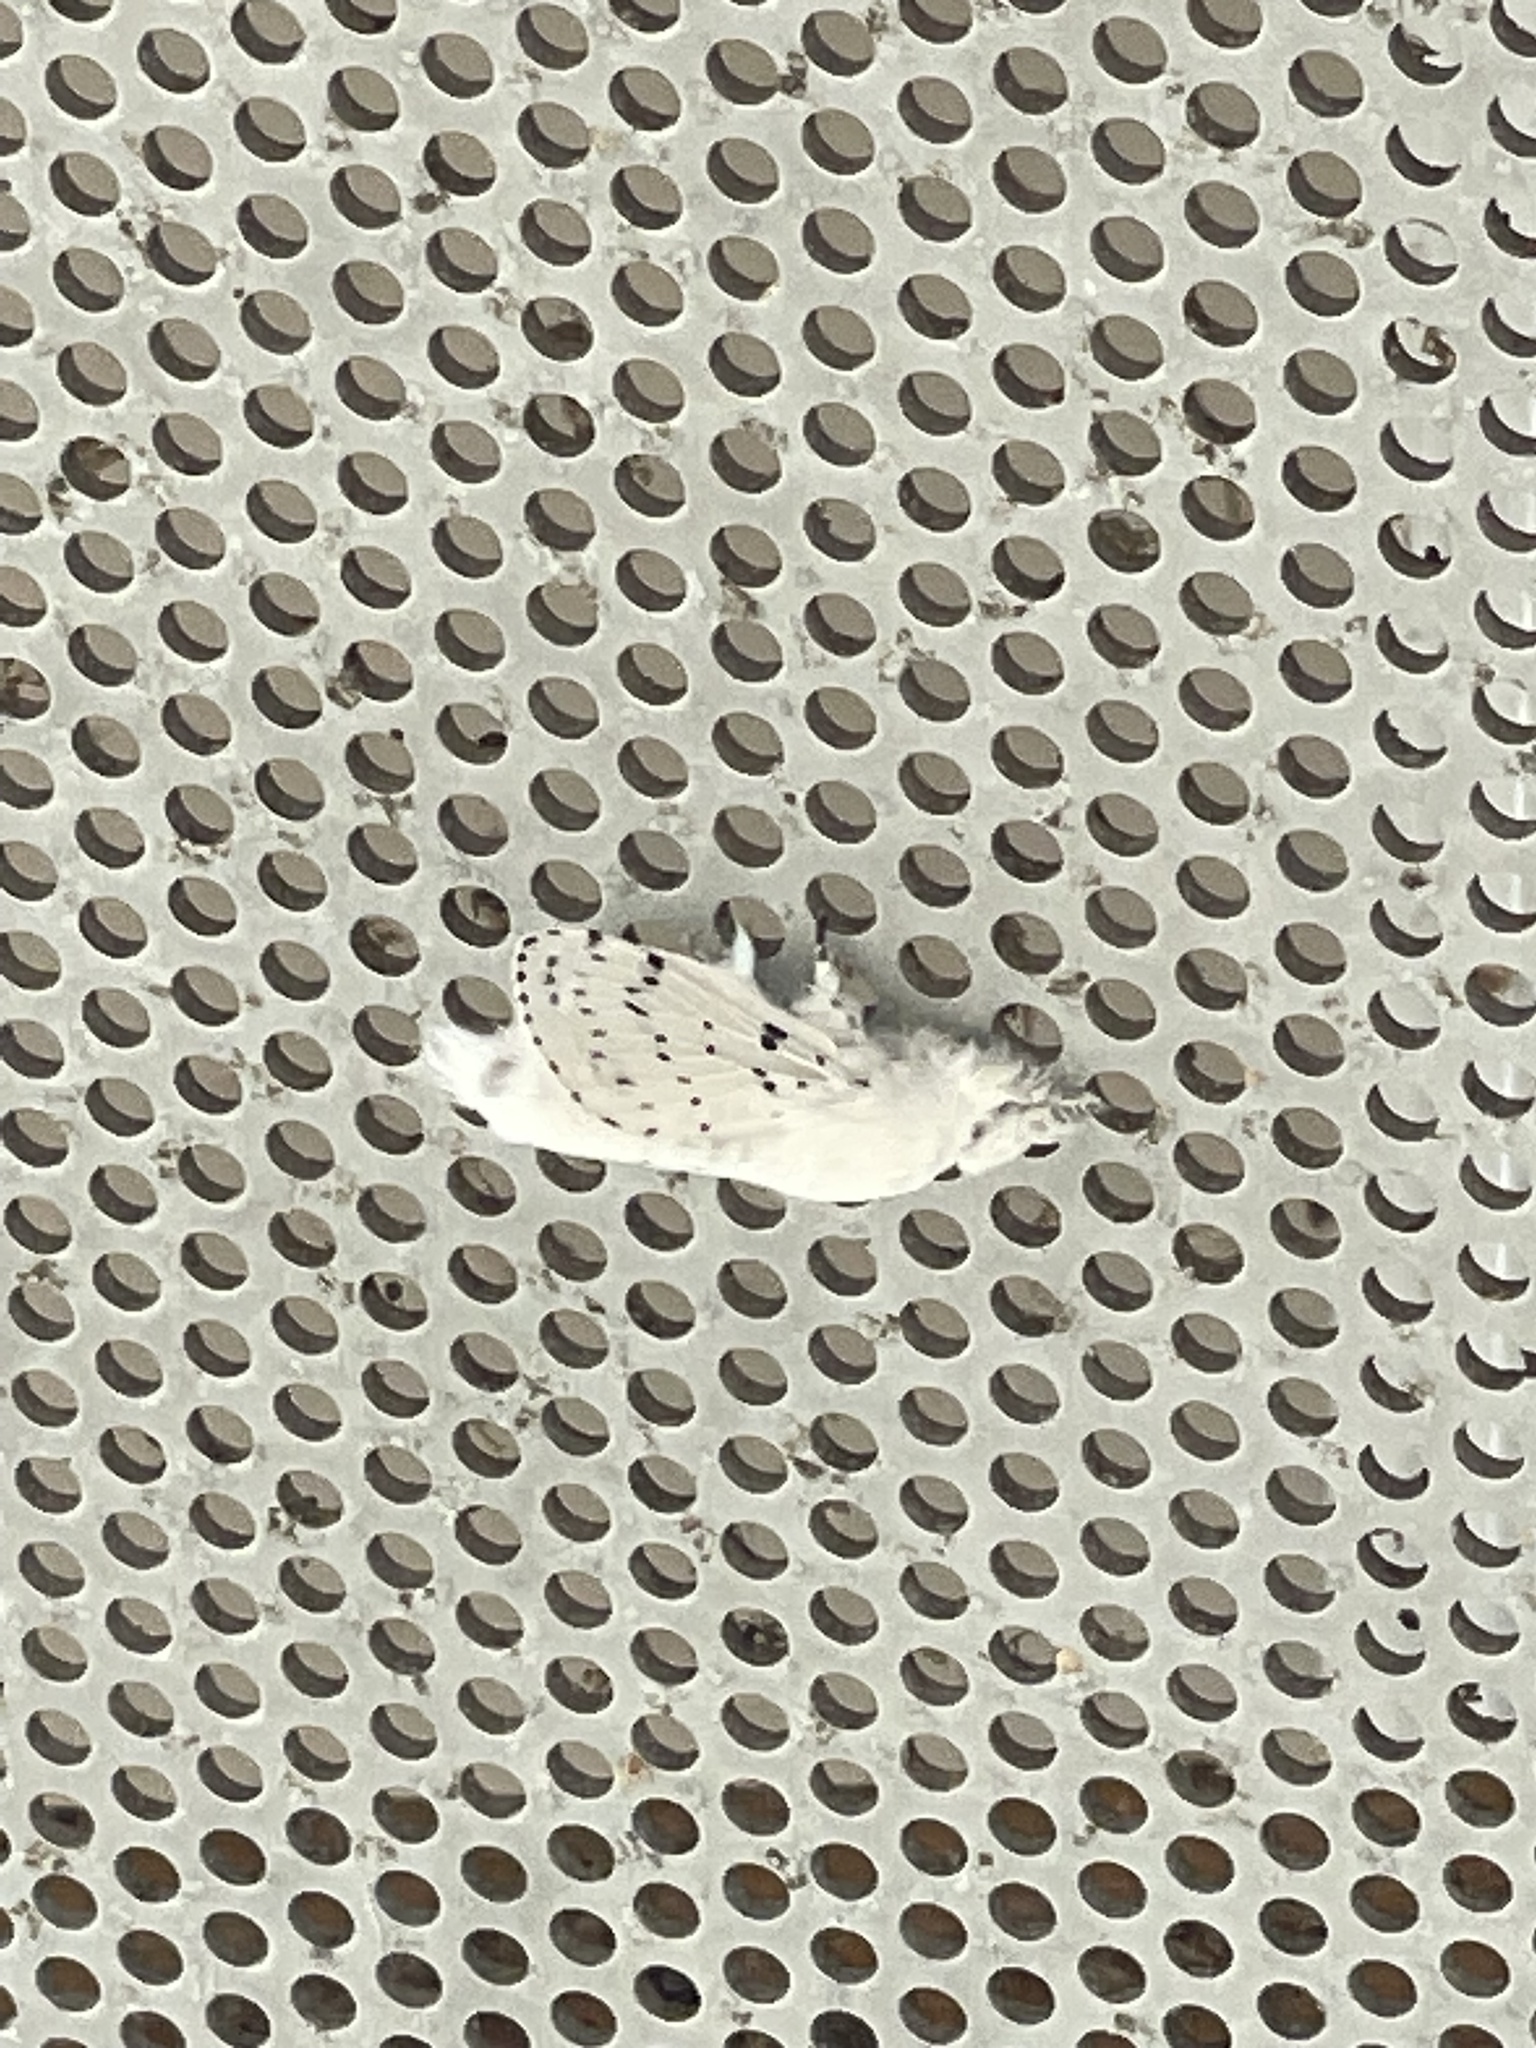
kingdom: Animalia
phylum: Arthropoda
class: Insecta
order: Lepidoptera
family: Lasiocampidae
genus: Artace
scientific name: Artace cribrarius
